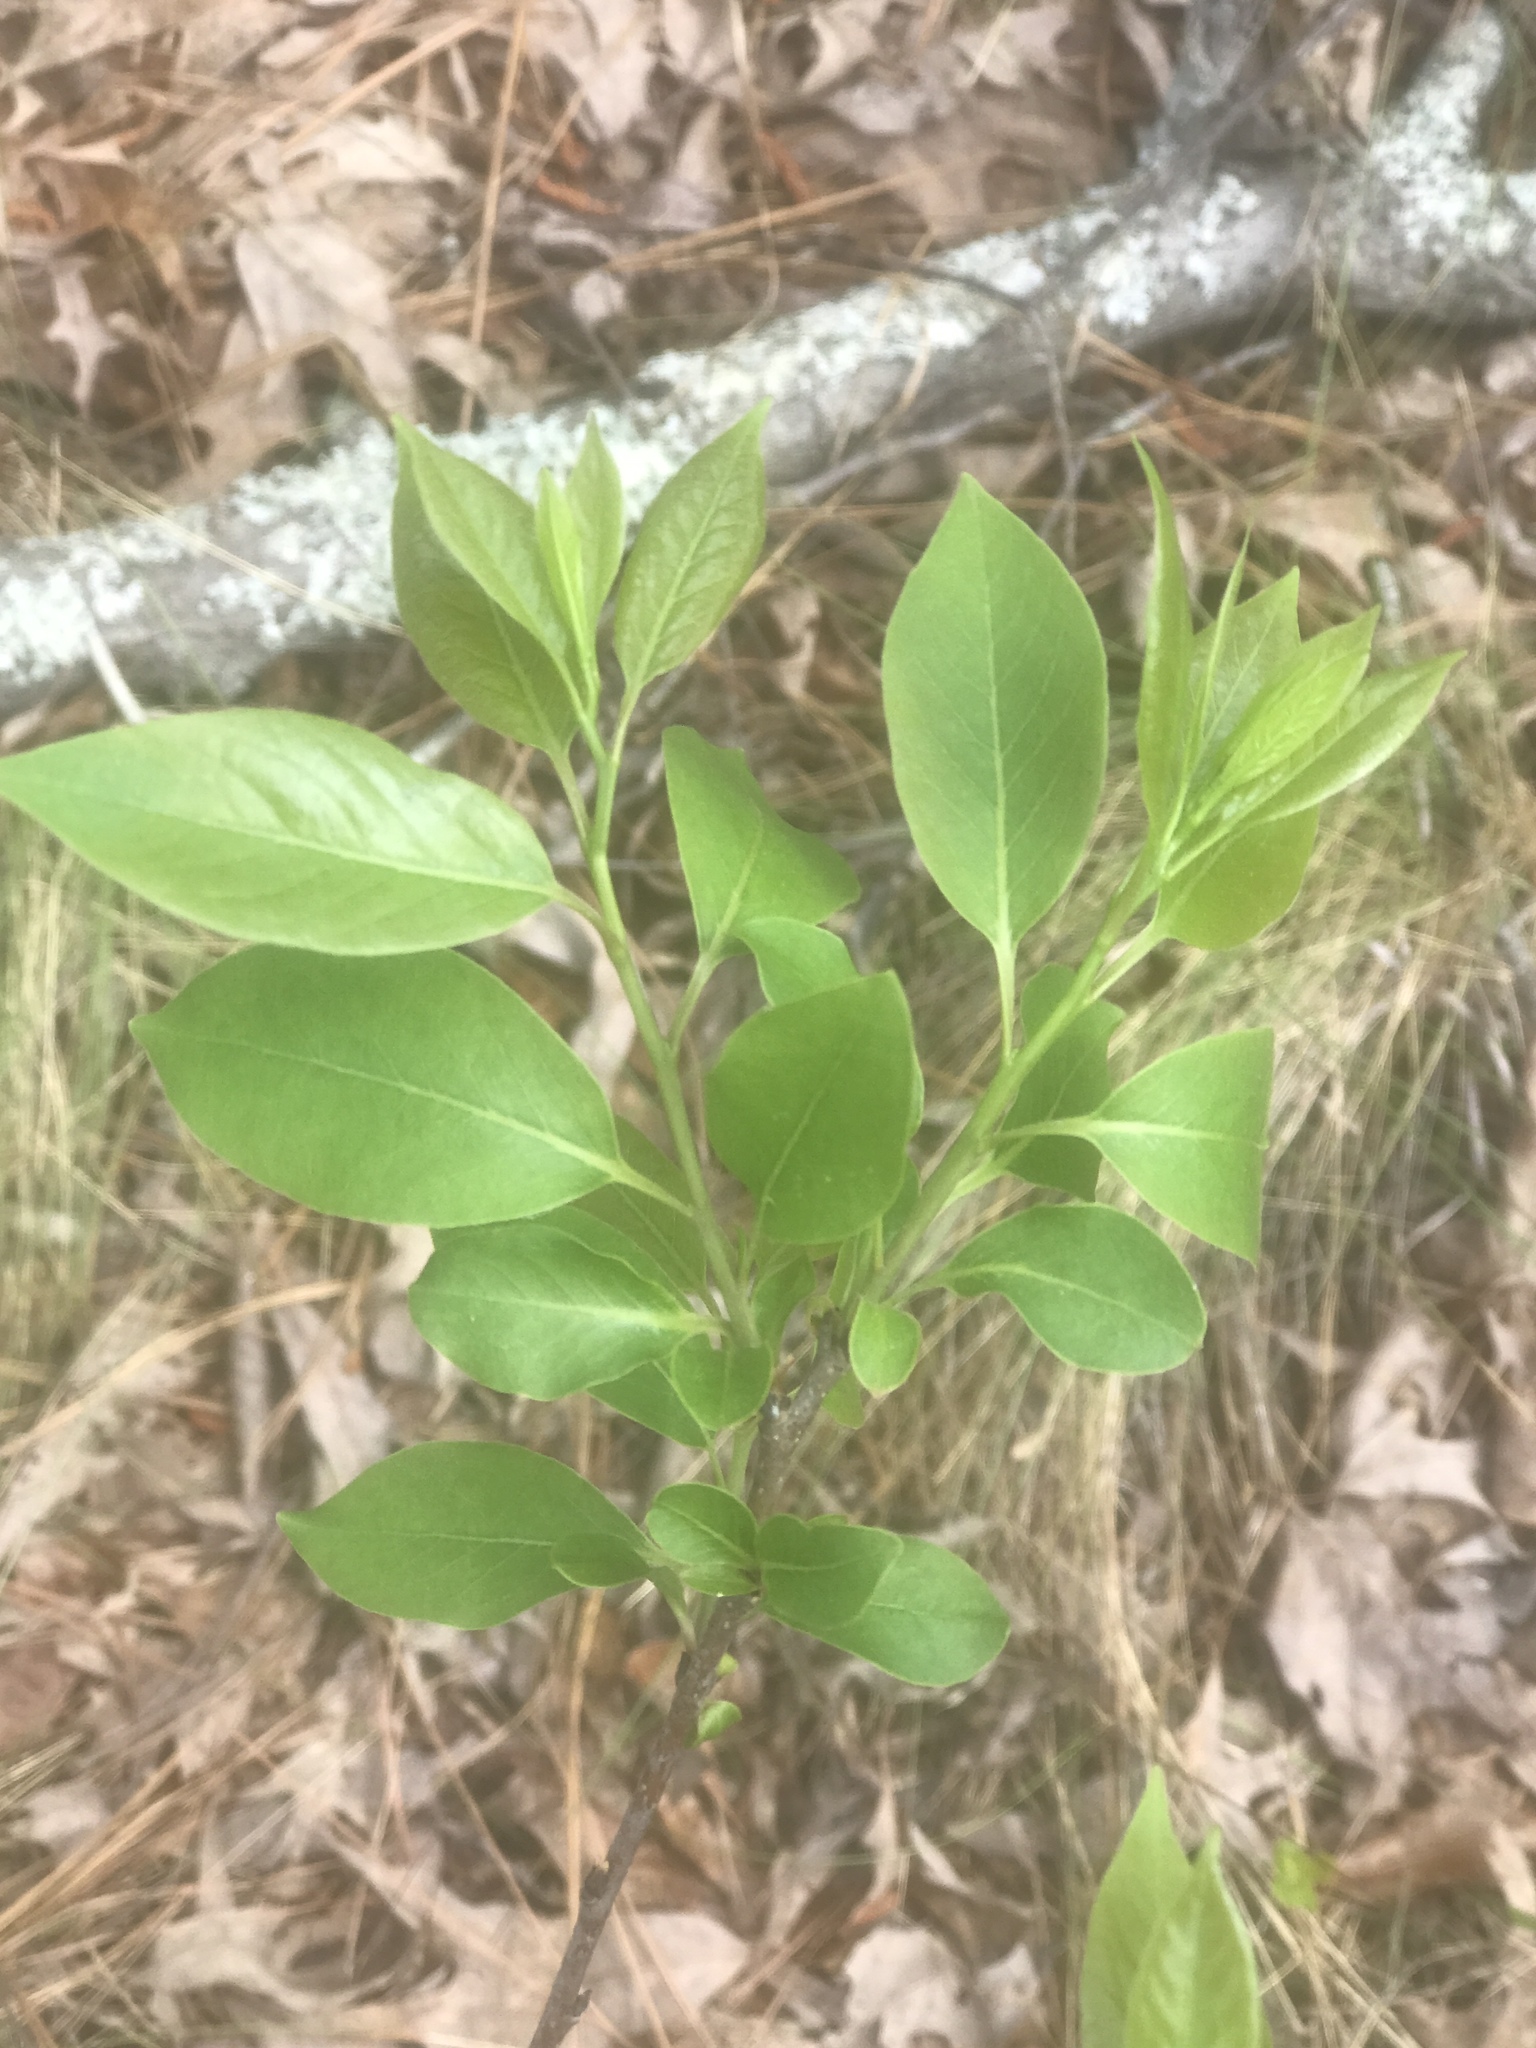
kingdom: Plantae
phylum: Tracheophyta
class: Magnoliopsida
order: Ericales
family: Ebenaceae
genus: Diospyros
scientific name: Diospyros virginiana
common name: Persimmon
